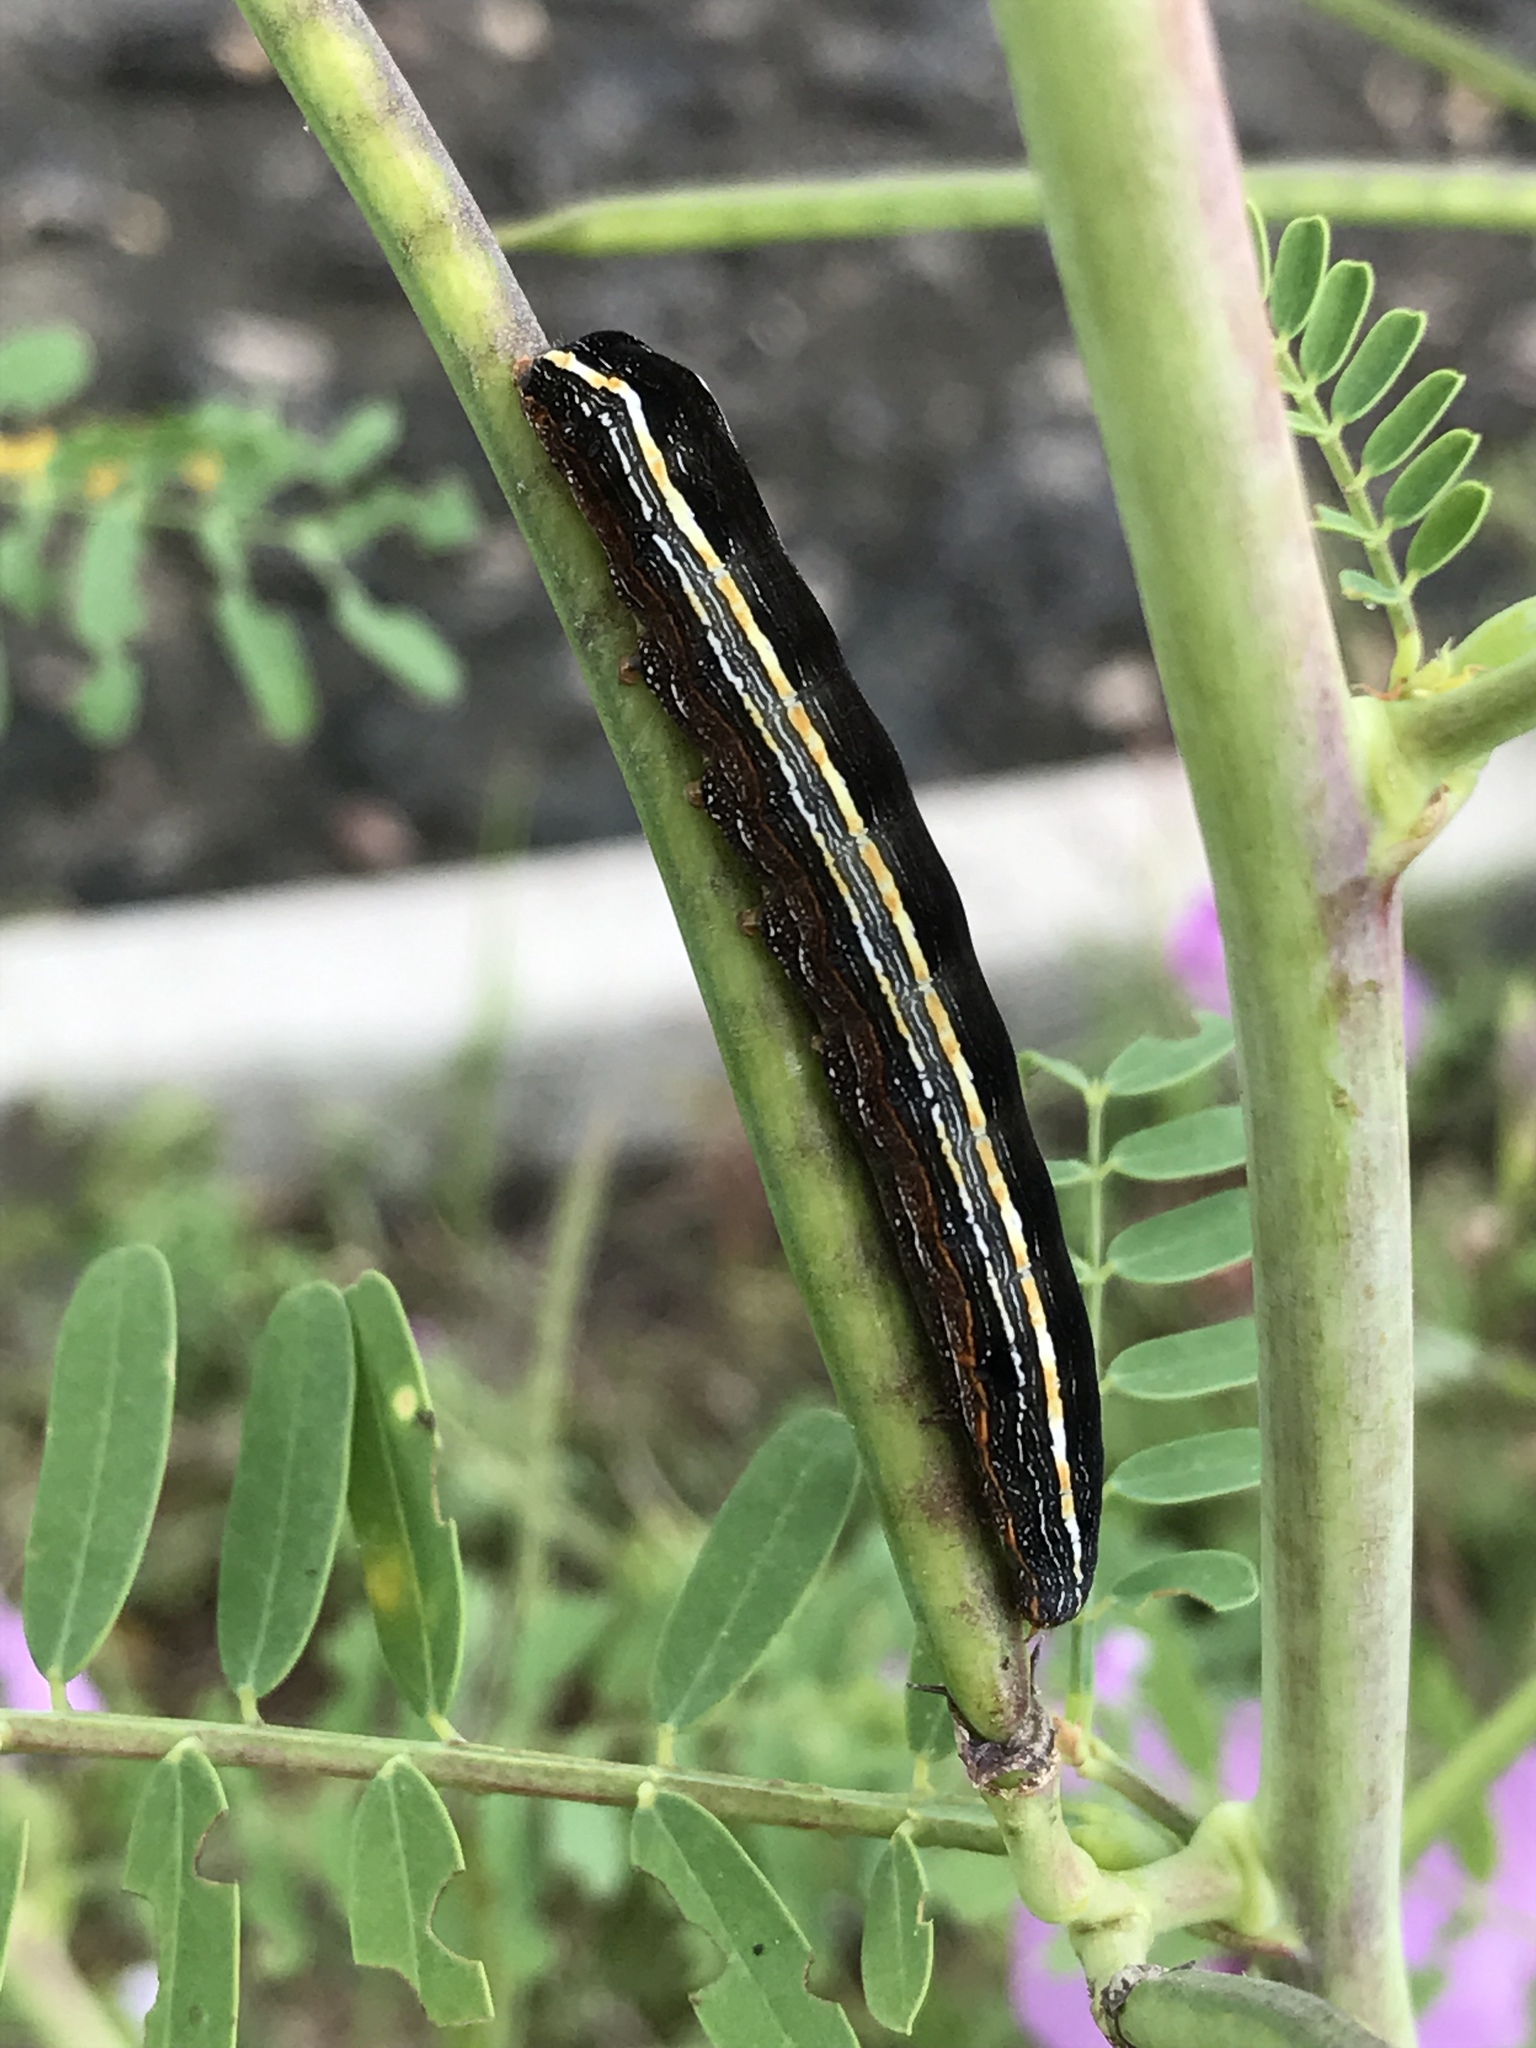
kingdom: Animalia
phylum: Arthropoda
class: Insecta
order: Lepidoptera
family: Noctuidae
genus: Spodoptera
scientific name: Spodoptera ornithogalli
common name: Yellow-striped armyworm
